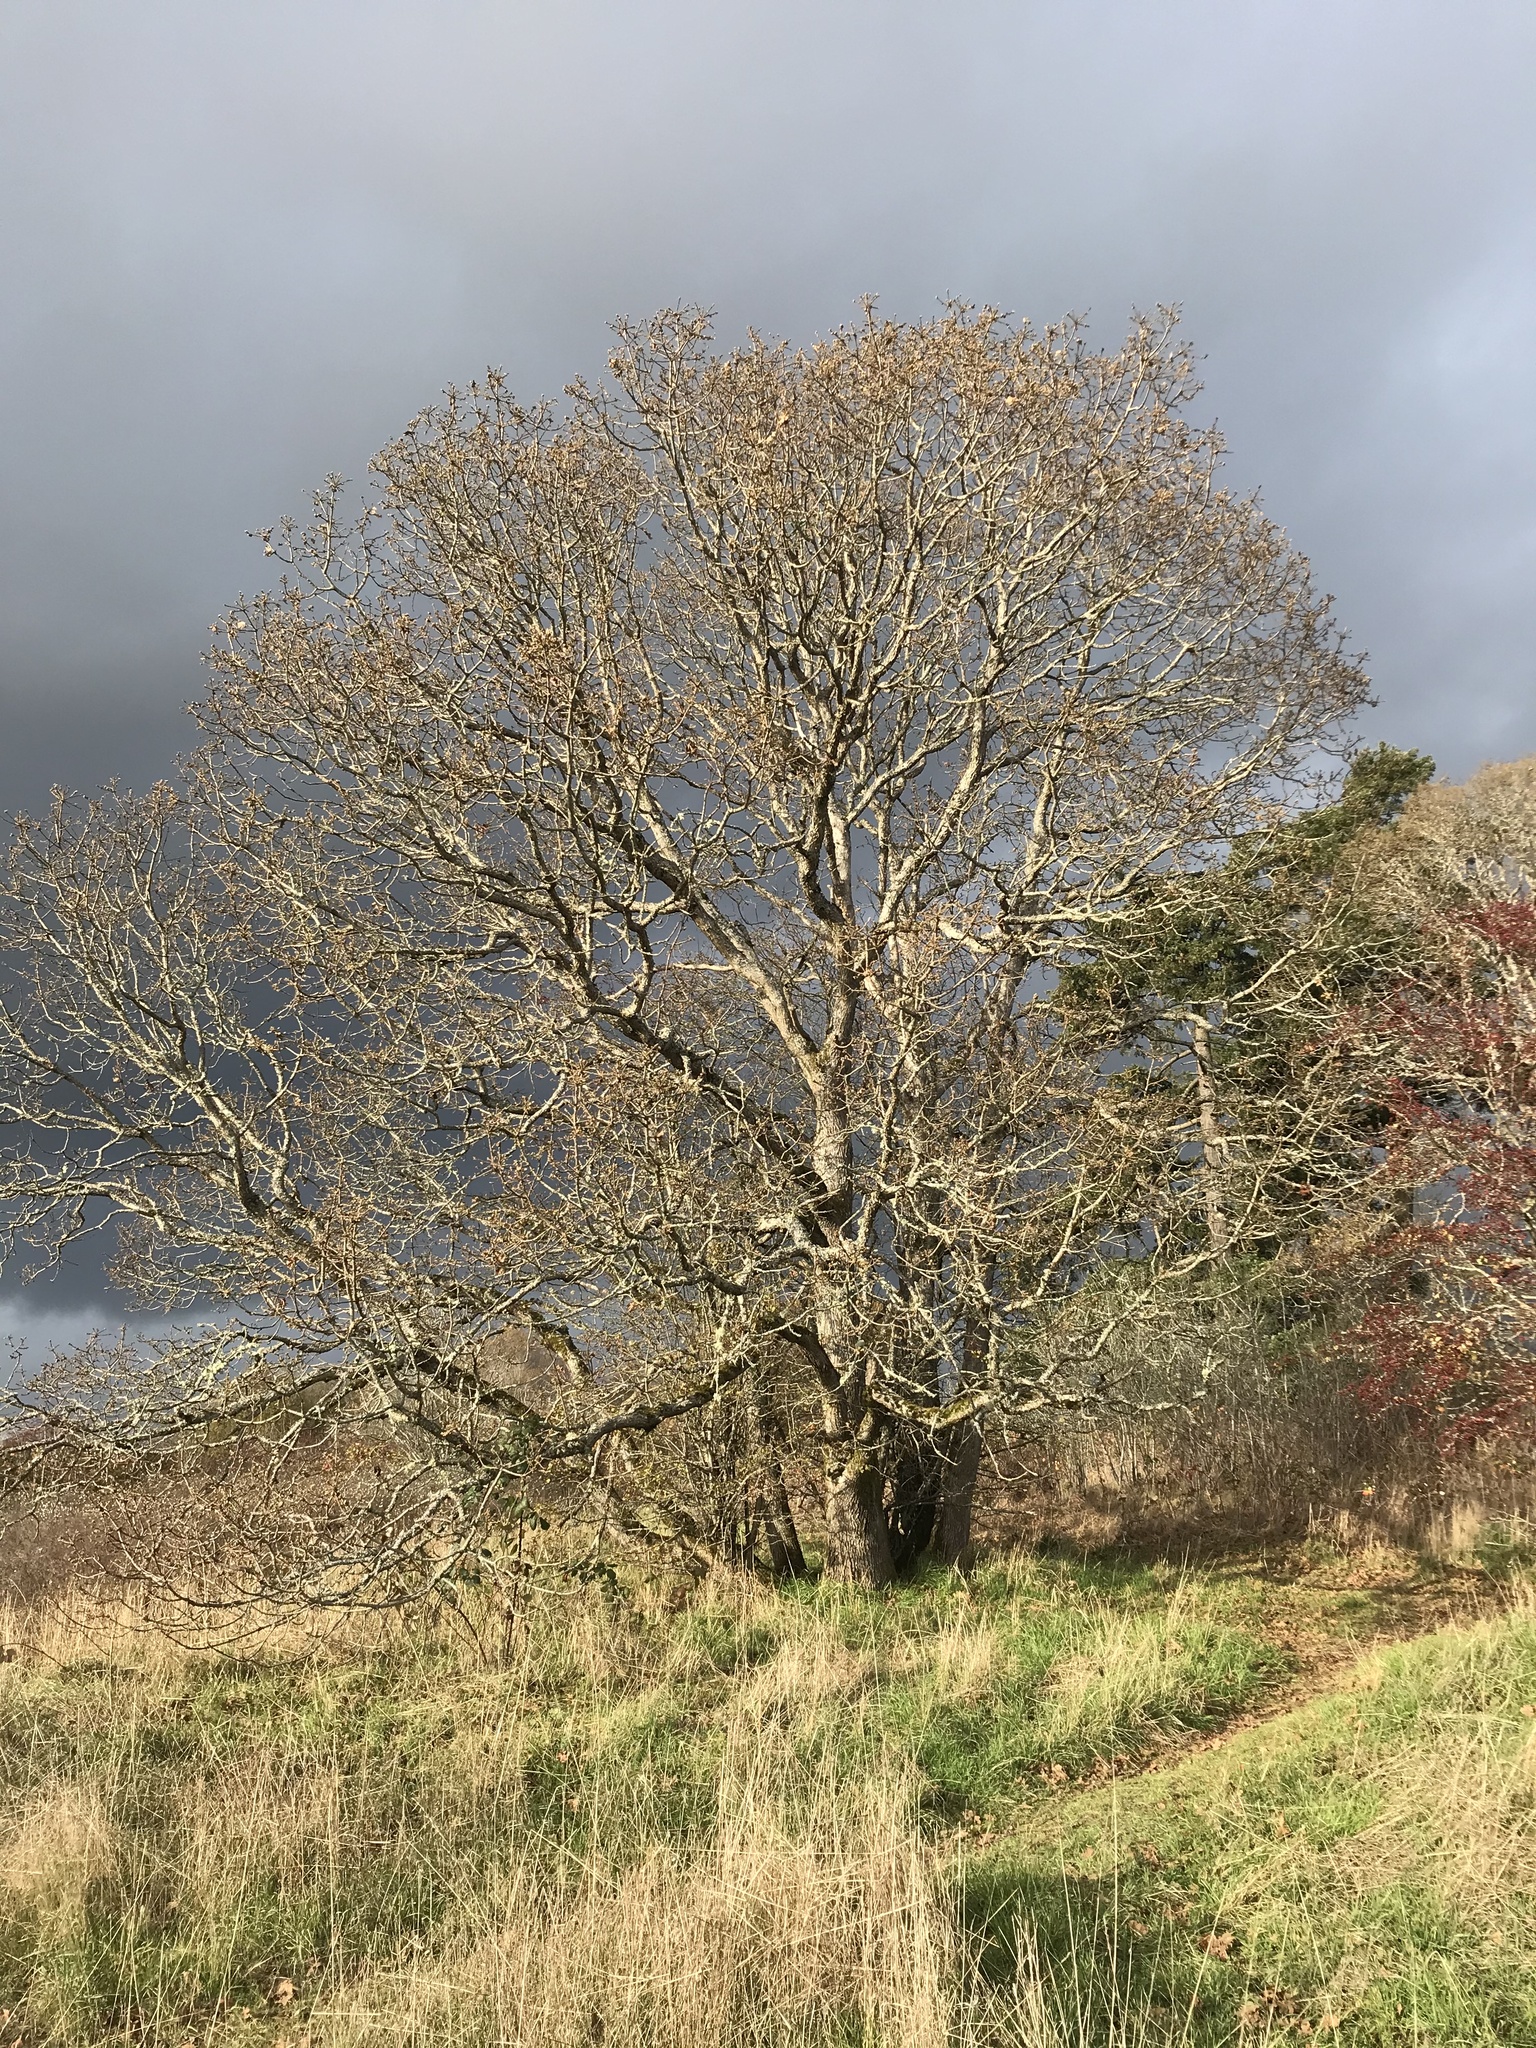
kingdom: Plantae
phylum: Tracheophyta
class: Magnoliopsida
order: Fagales
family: Fagaceae
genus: Quercus
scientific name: Quercus garryana
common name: Garry oak
